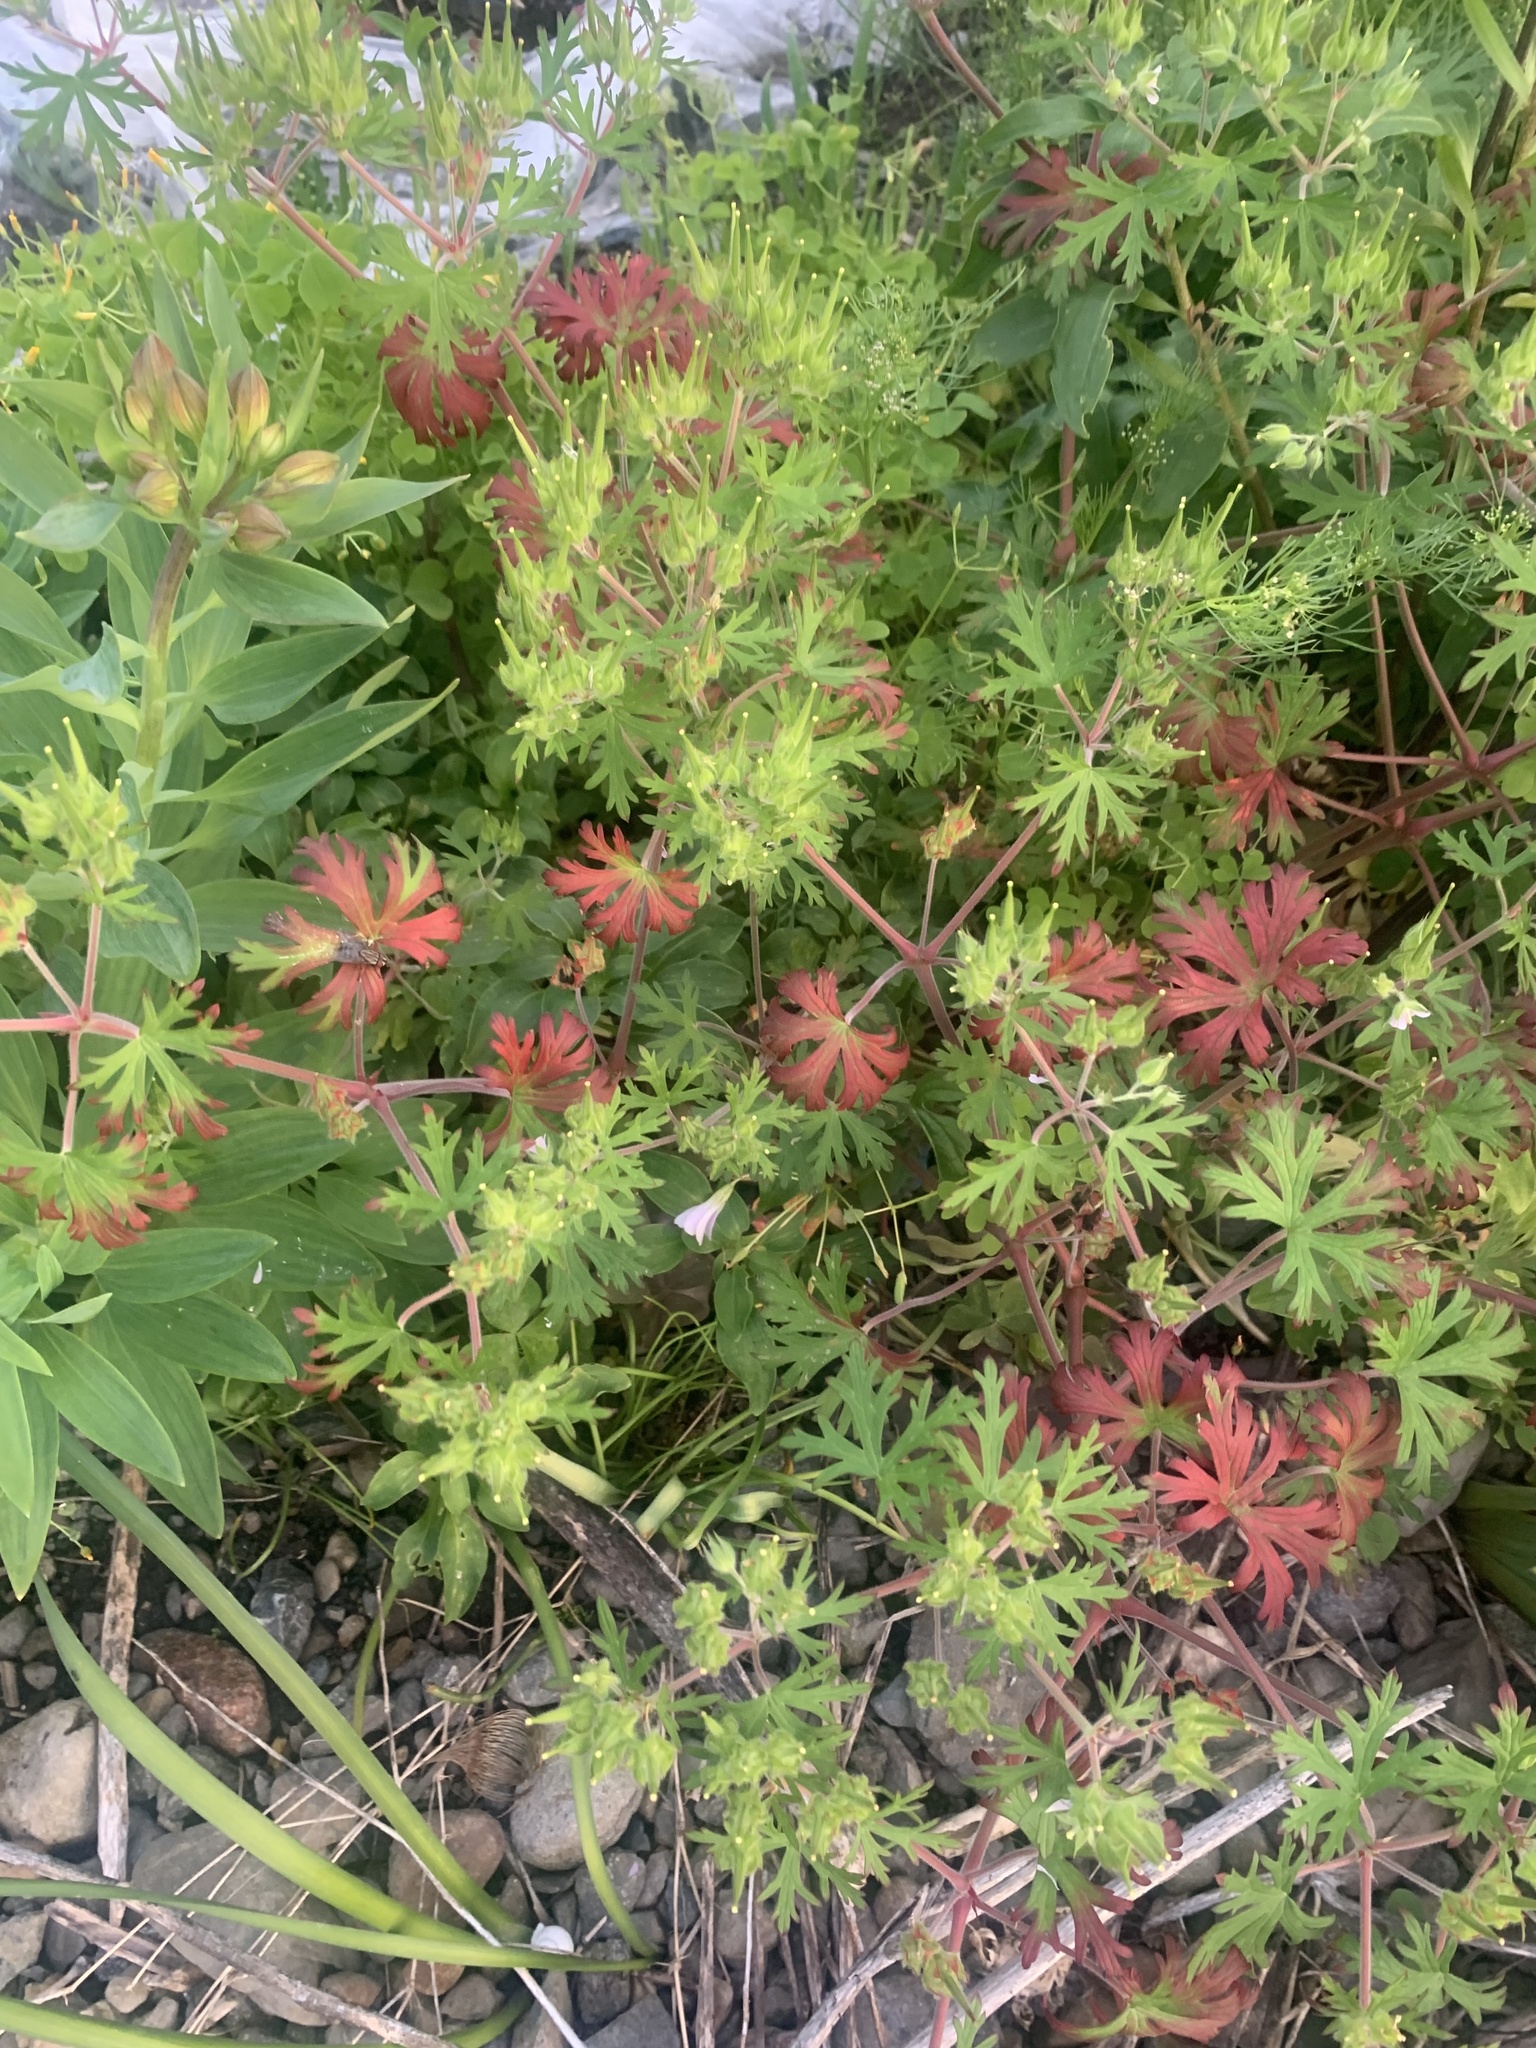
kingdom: Plantae
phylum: Tracheophyta
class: Magnoliopsida
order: Geraniales
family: Geraniaceae
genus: Geranium
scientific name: Geranium carolinianum
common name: Carolina crane's-bill
